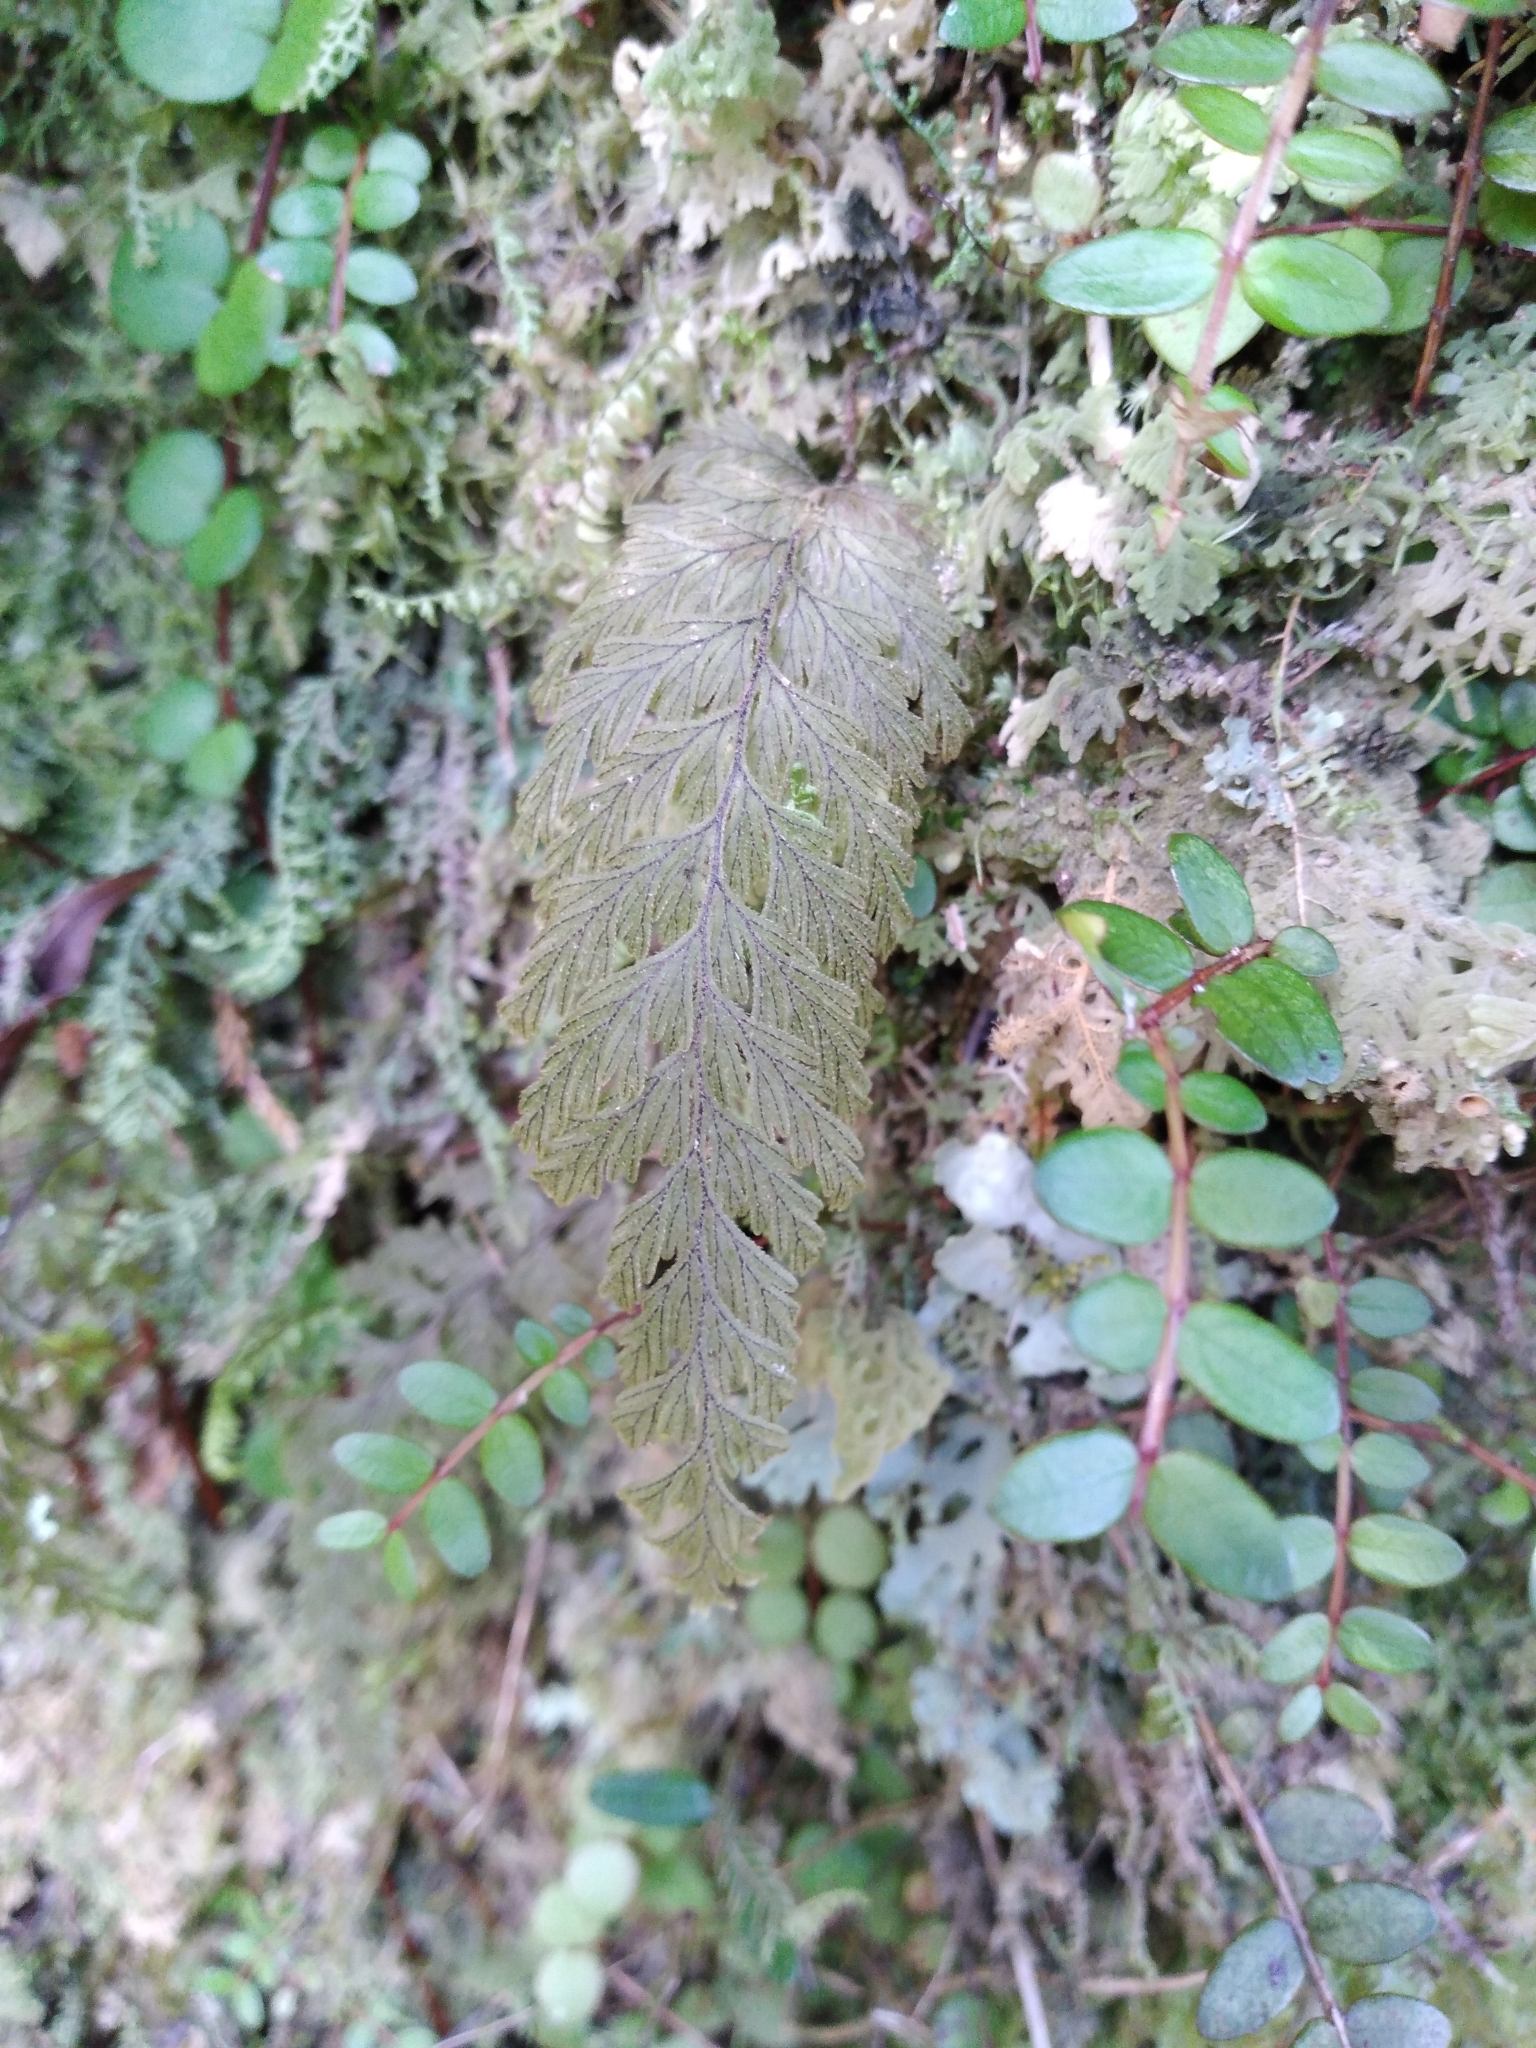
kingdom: Plantae
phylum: Tracheophyta
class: Polypodiopsida
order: Hymenophyllales
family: Hymenophyllaceae
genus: Hymenophyllum
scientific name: Hymenophyllum frankliniae
